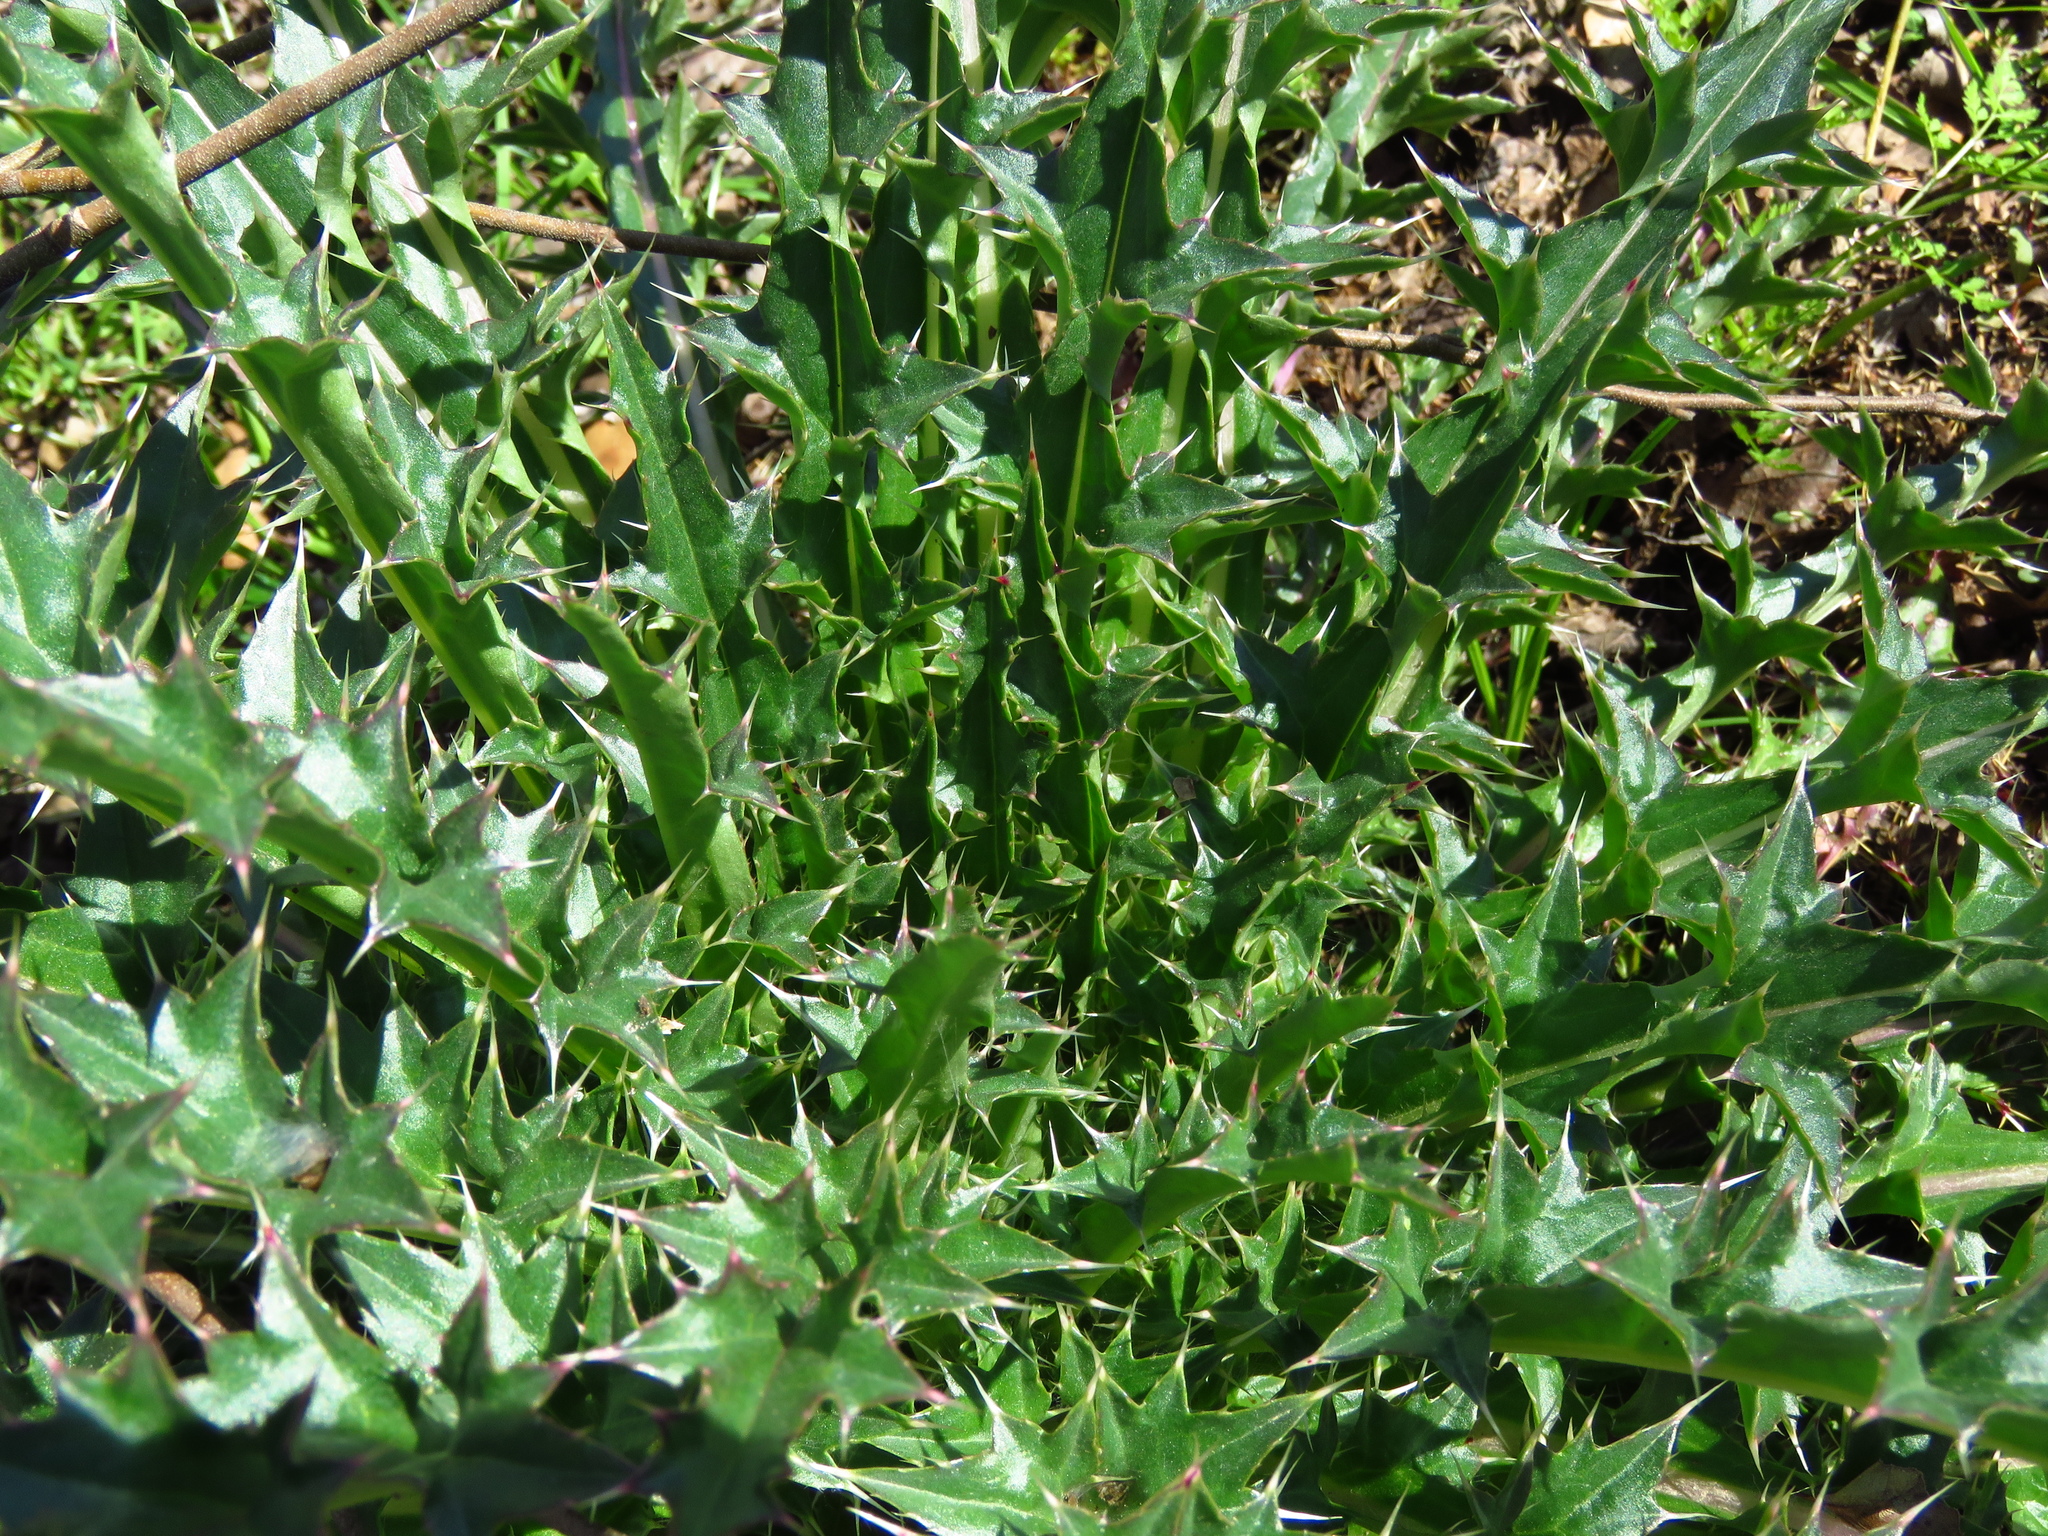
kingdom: Plantae
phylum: Tracheophyta
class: Magnoliopsida
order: Asterales
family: Asteraceae
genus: Cirsium
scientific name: Cirsium horridulum
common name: Bristly thistle
